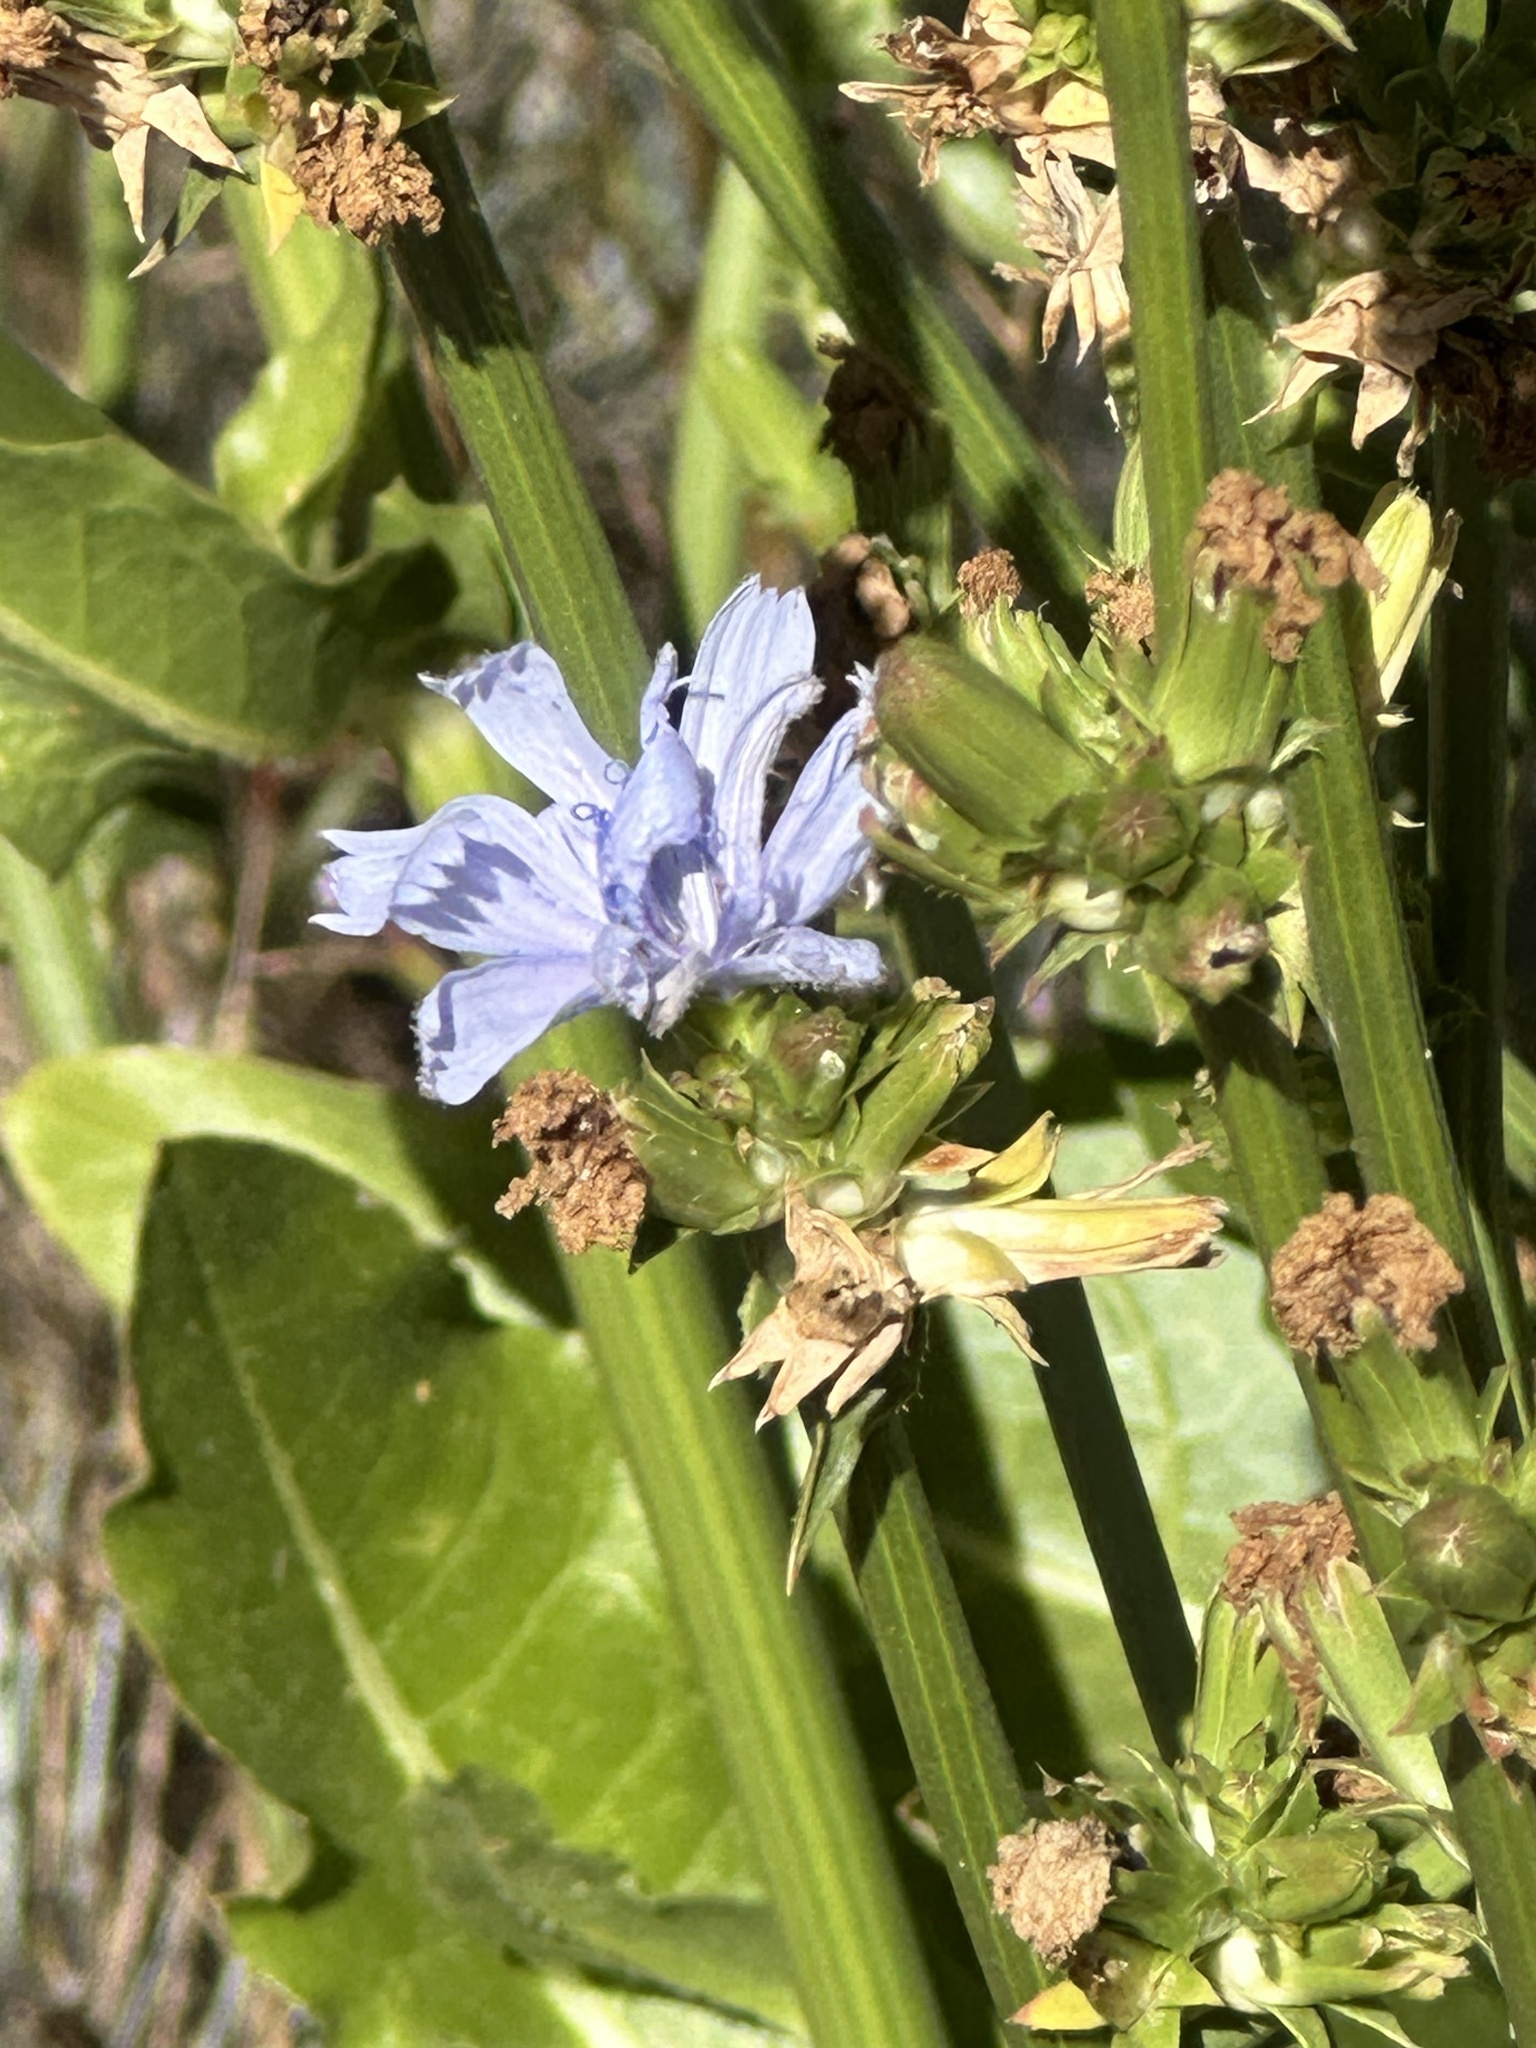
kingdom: Plantae
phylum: Tracheophyta
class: Magnoliopsida
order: Asterales
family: Asteraceae
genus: Cichorium
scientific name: Cichorium intybus
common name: Chicory
